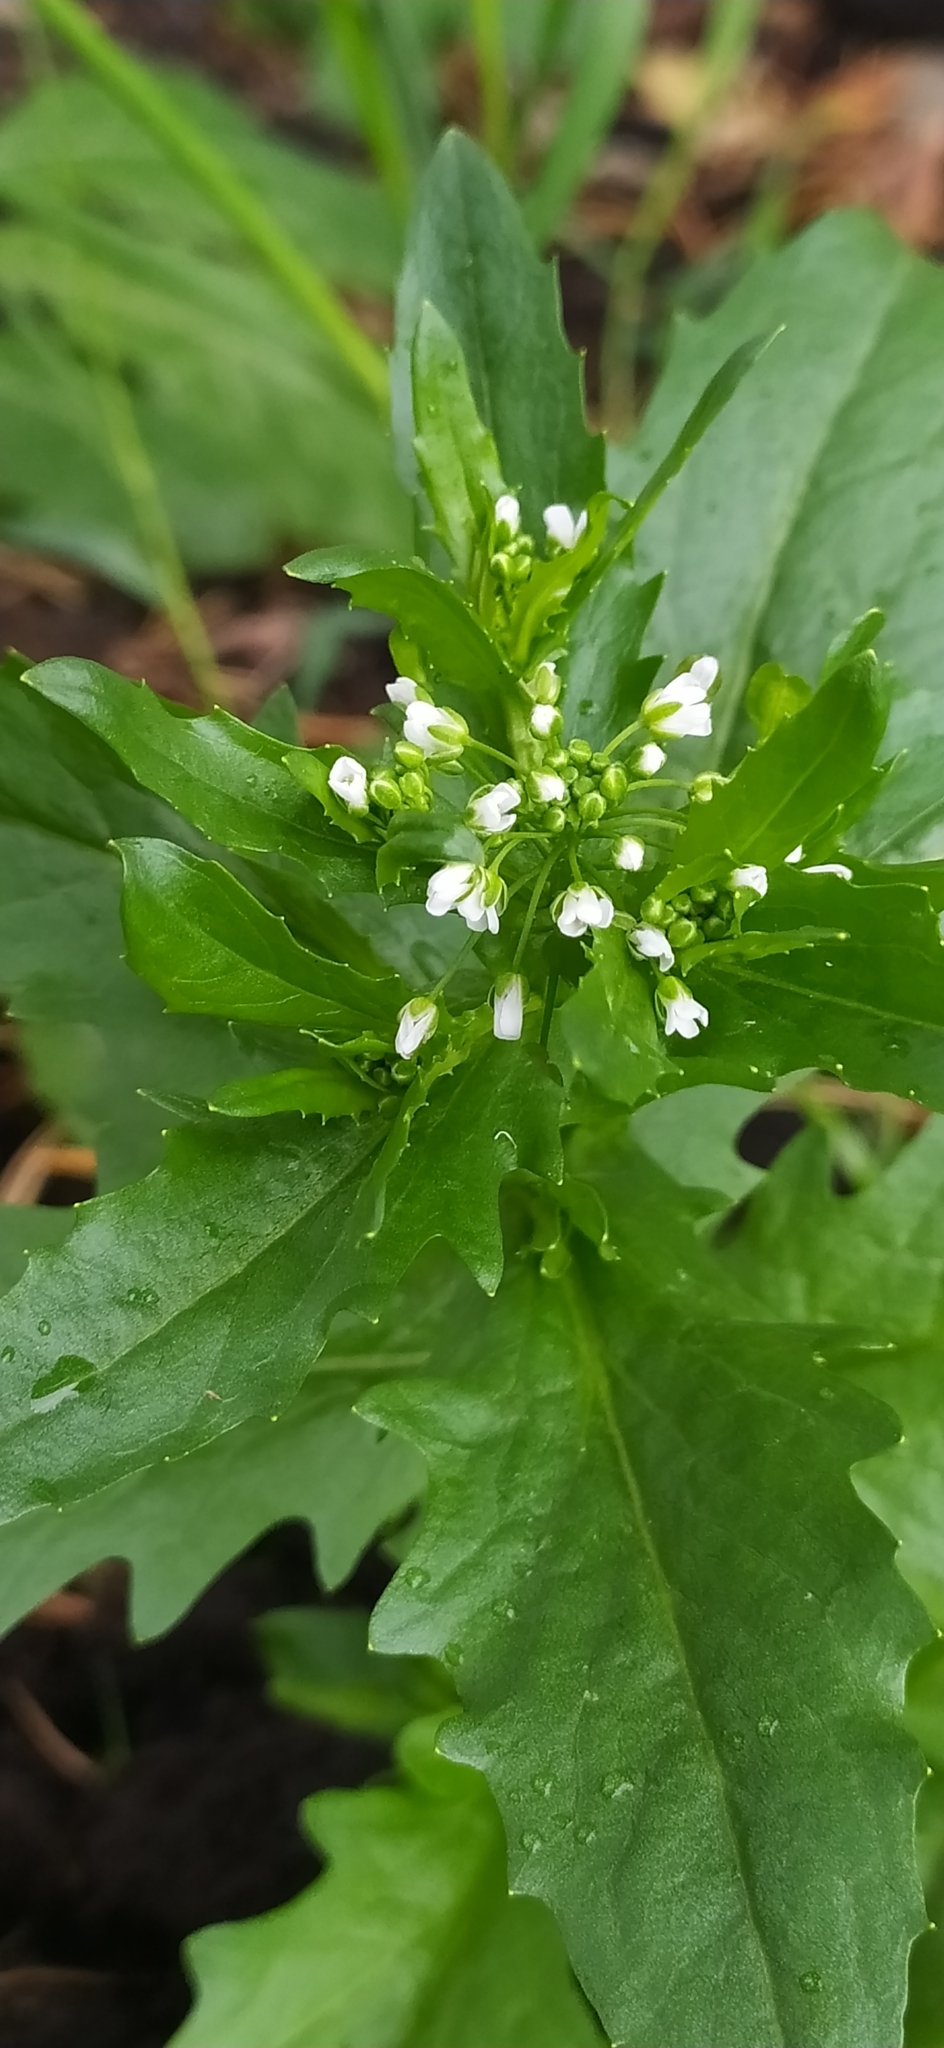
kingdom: Plantae
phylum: Tracheophyta
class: Magnoliopsida
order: Brassicales
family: Brassicaceae
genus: Thlaspi
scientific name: Thlaspi arvense
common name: Field pennycress
